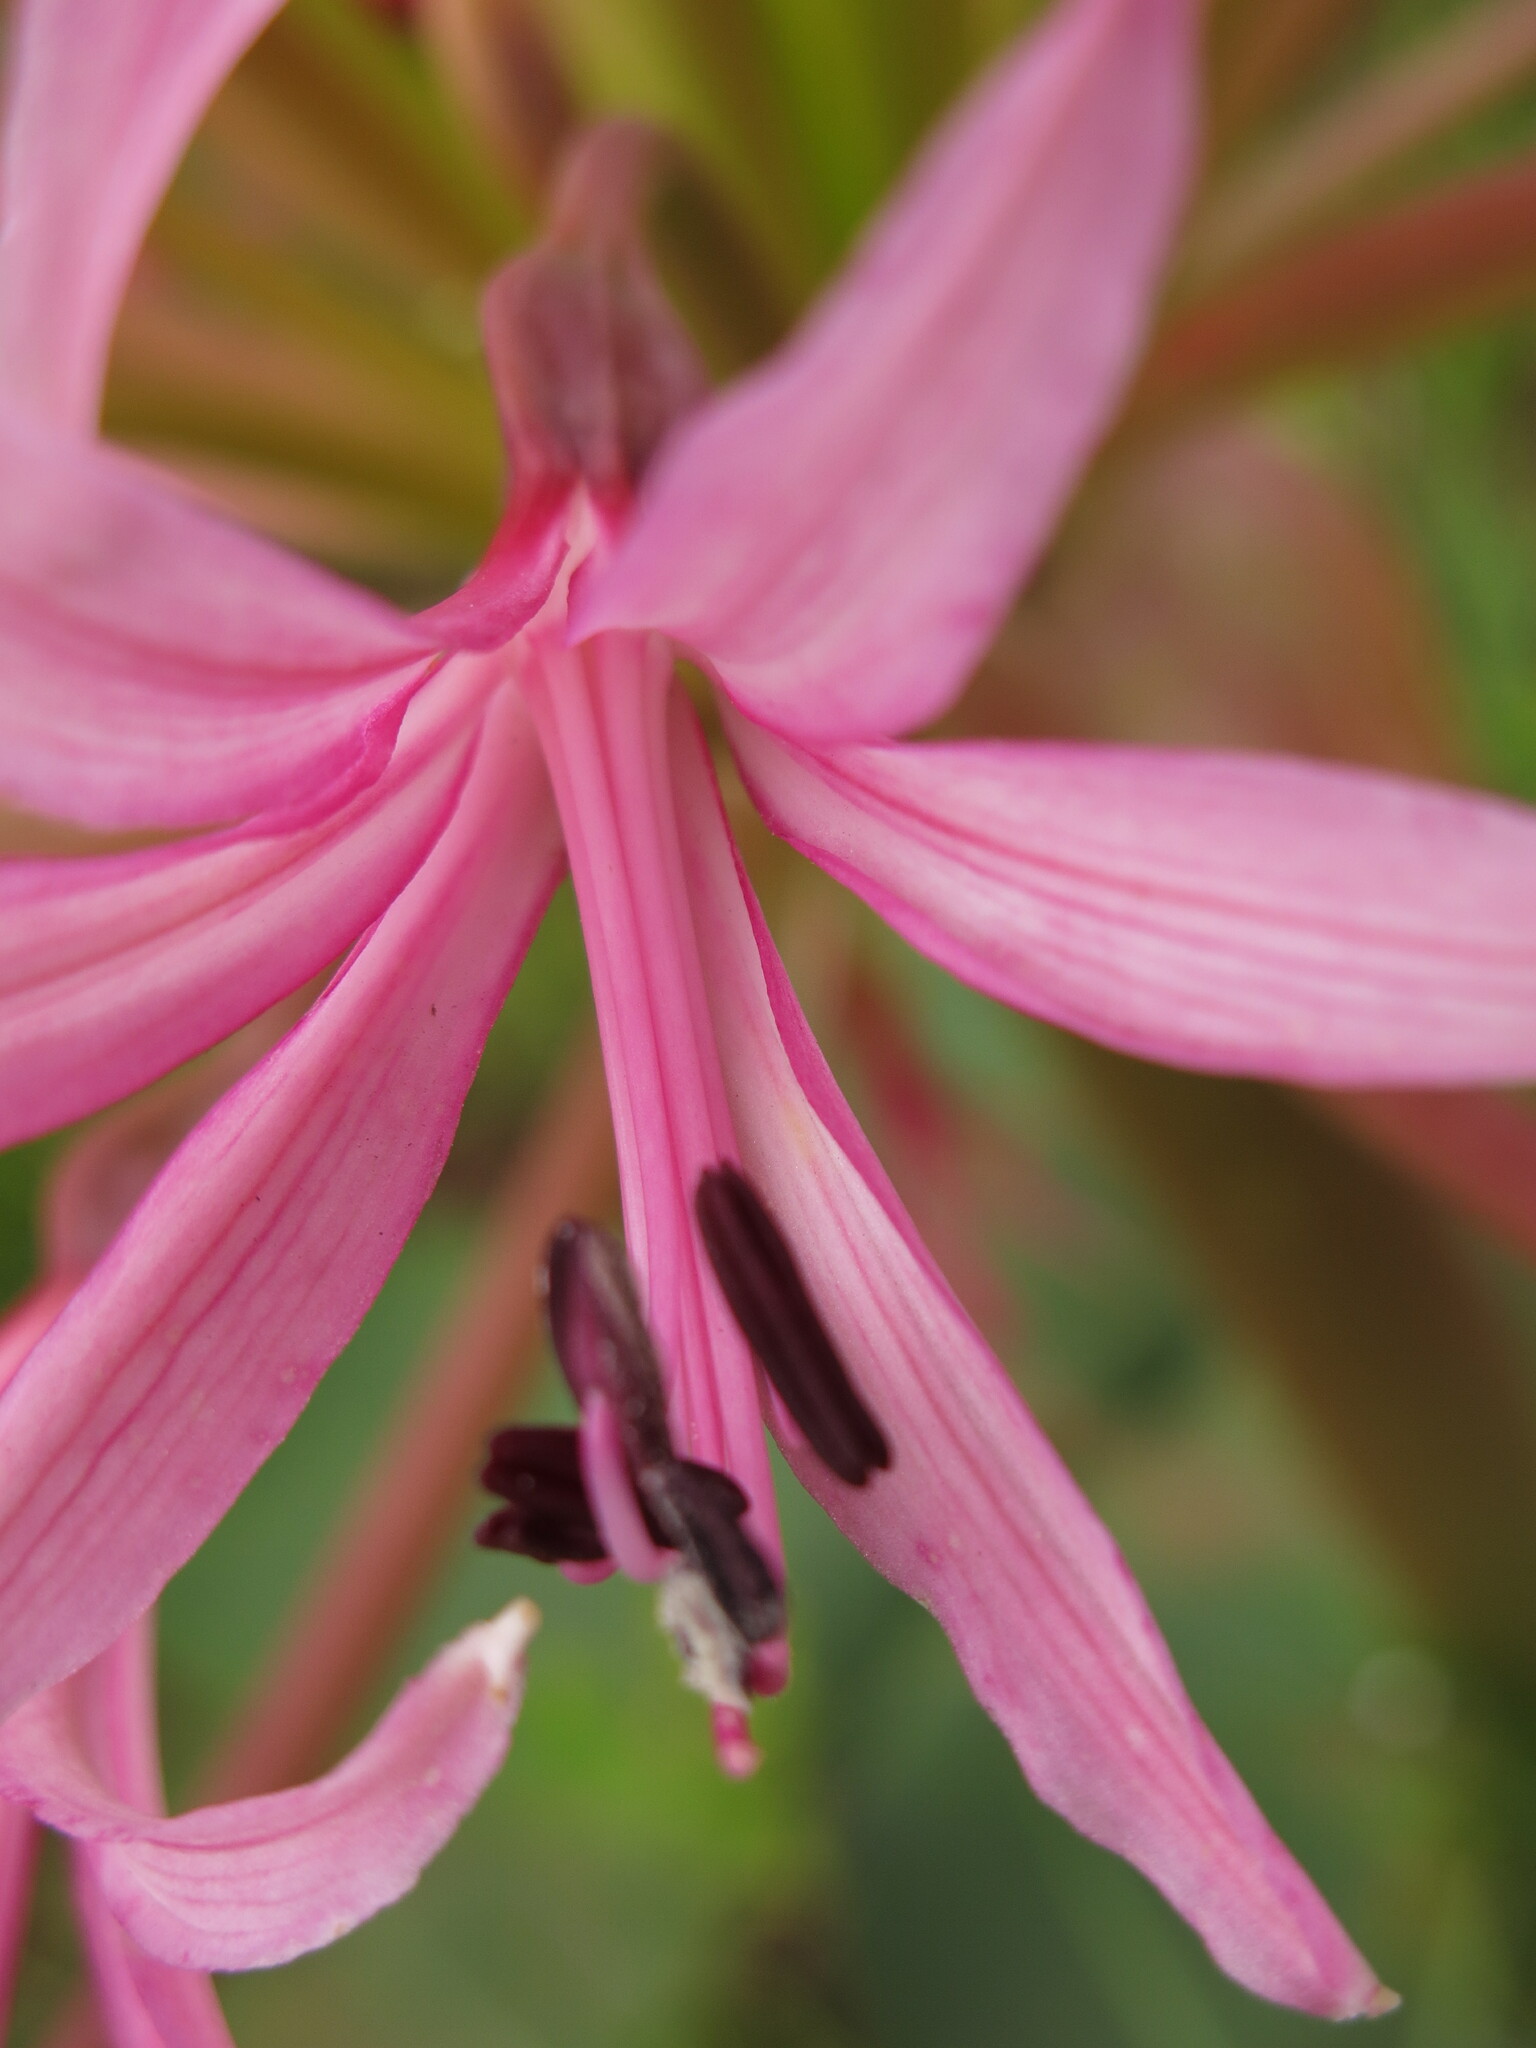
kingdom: Plantae
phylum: Tracheophyta
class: Liliopsida
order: Asparagales
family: Amaryllidaceae
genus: Brunsvigia
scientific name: Brunsvigia radulosa
